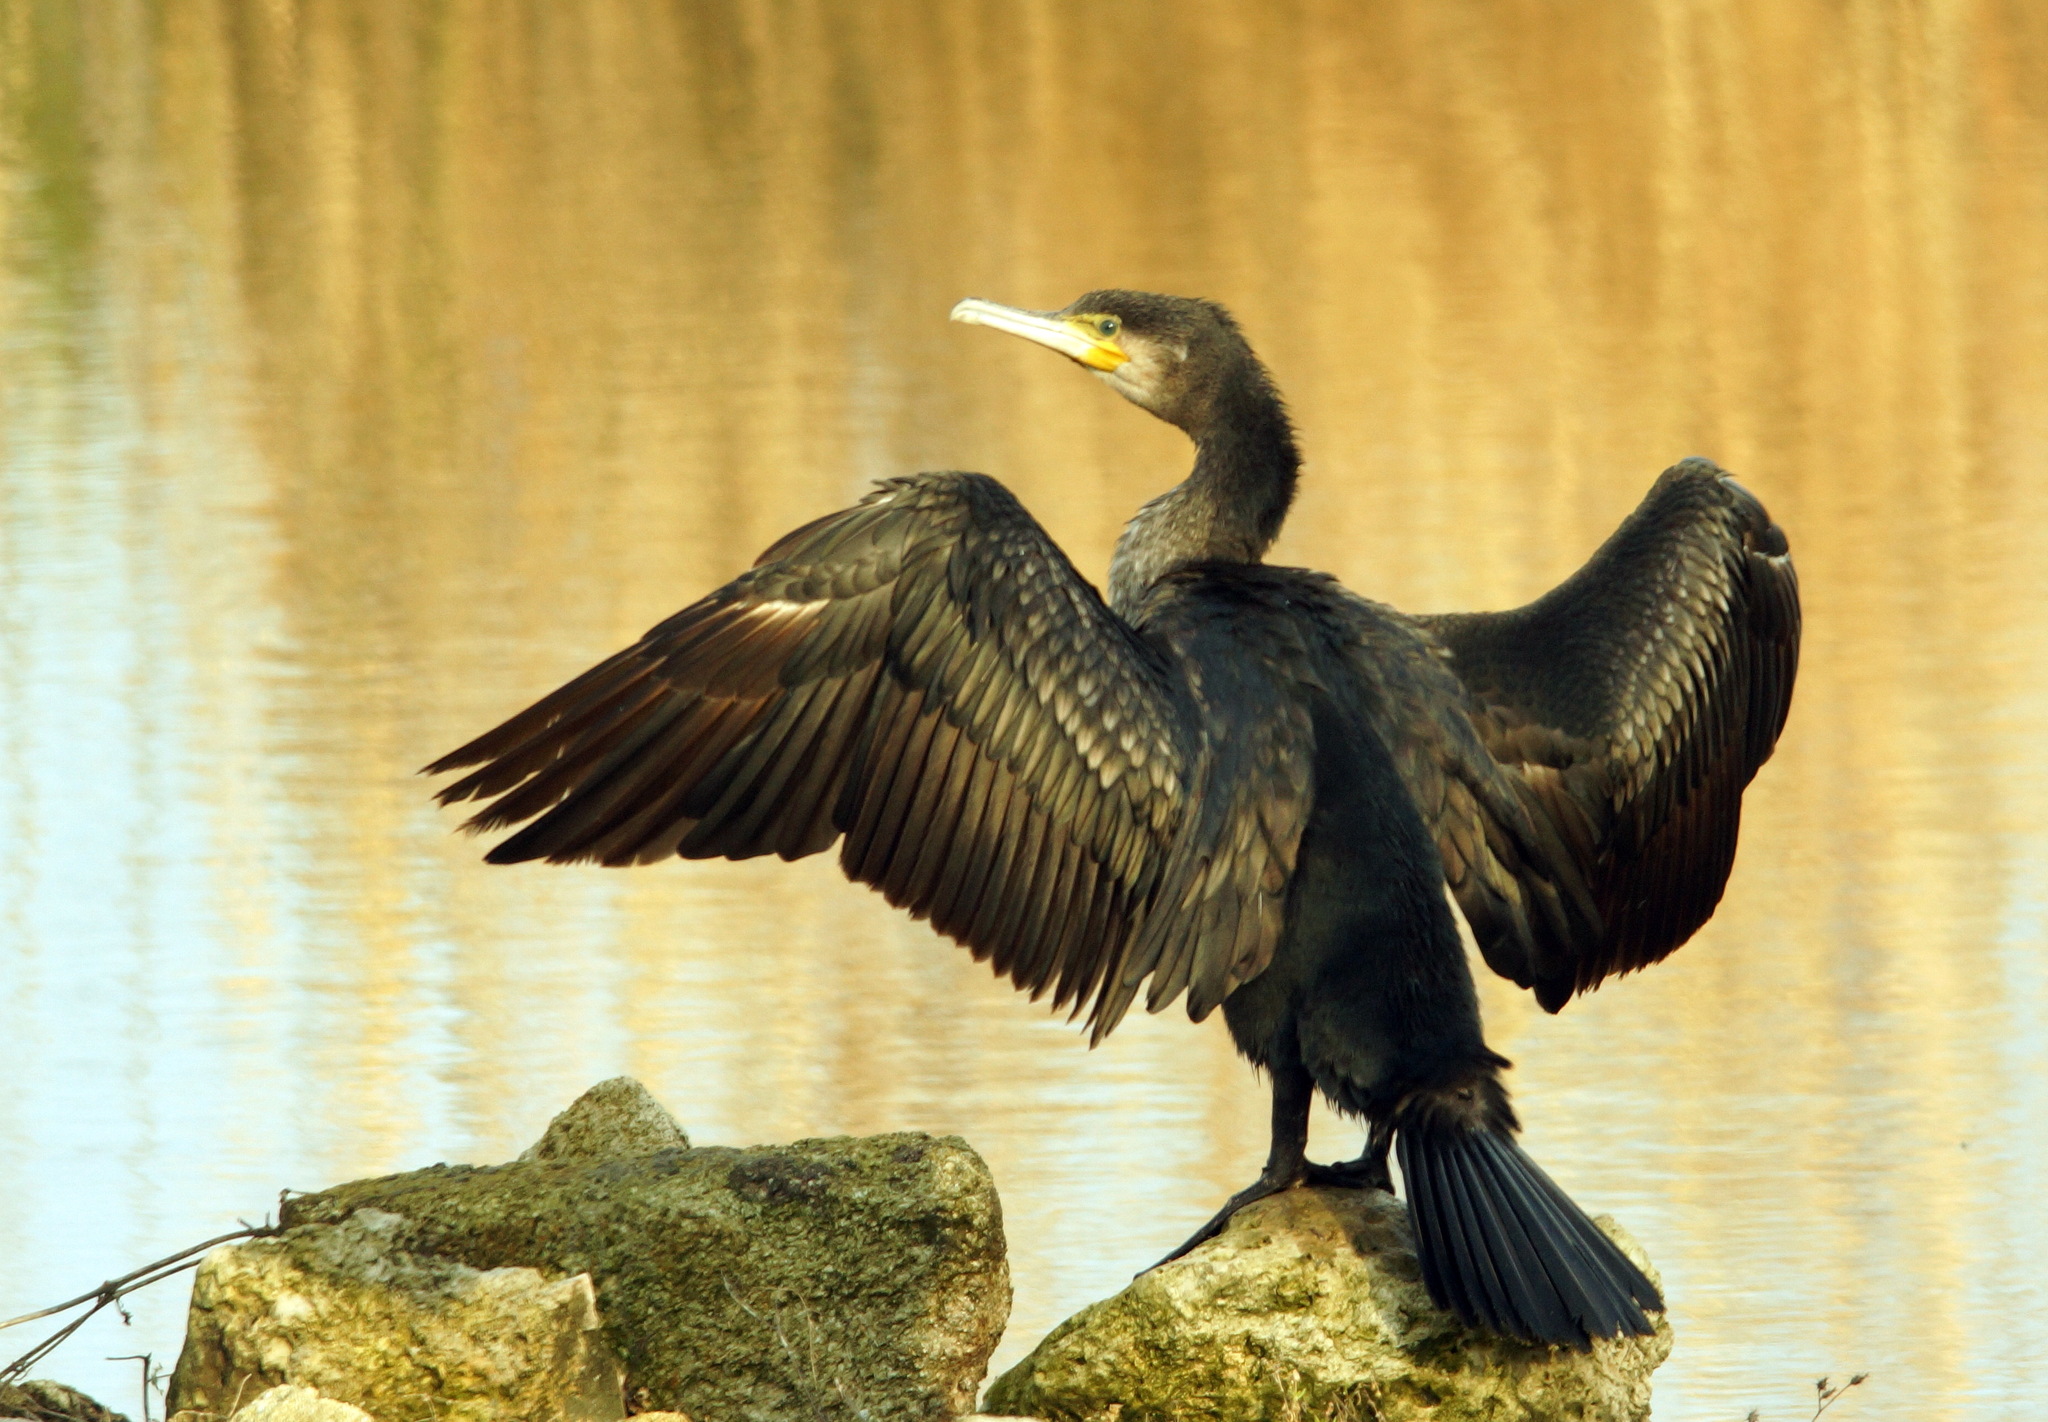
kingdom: Animalia
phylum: Chordata
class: Aves
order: Suliformes
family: Phalacrocoracidae
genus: Phalacrocorax
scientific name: Phalacrocorax carbo
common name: Great cormorant
